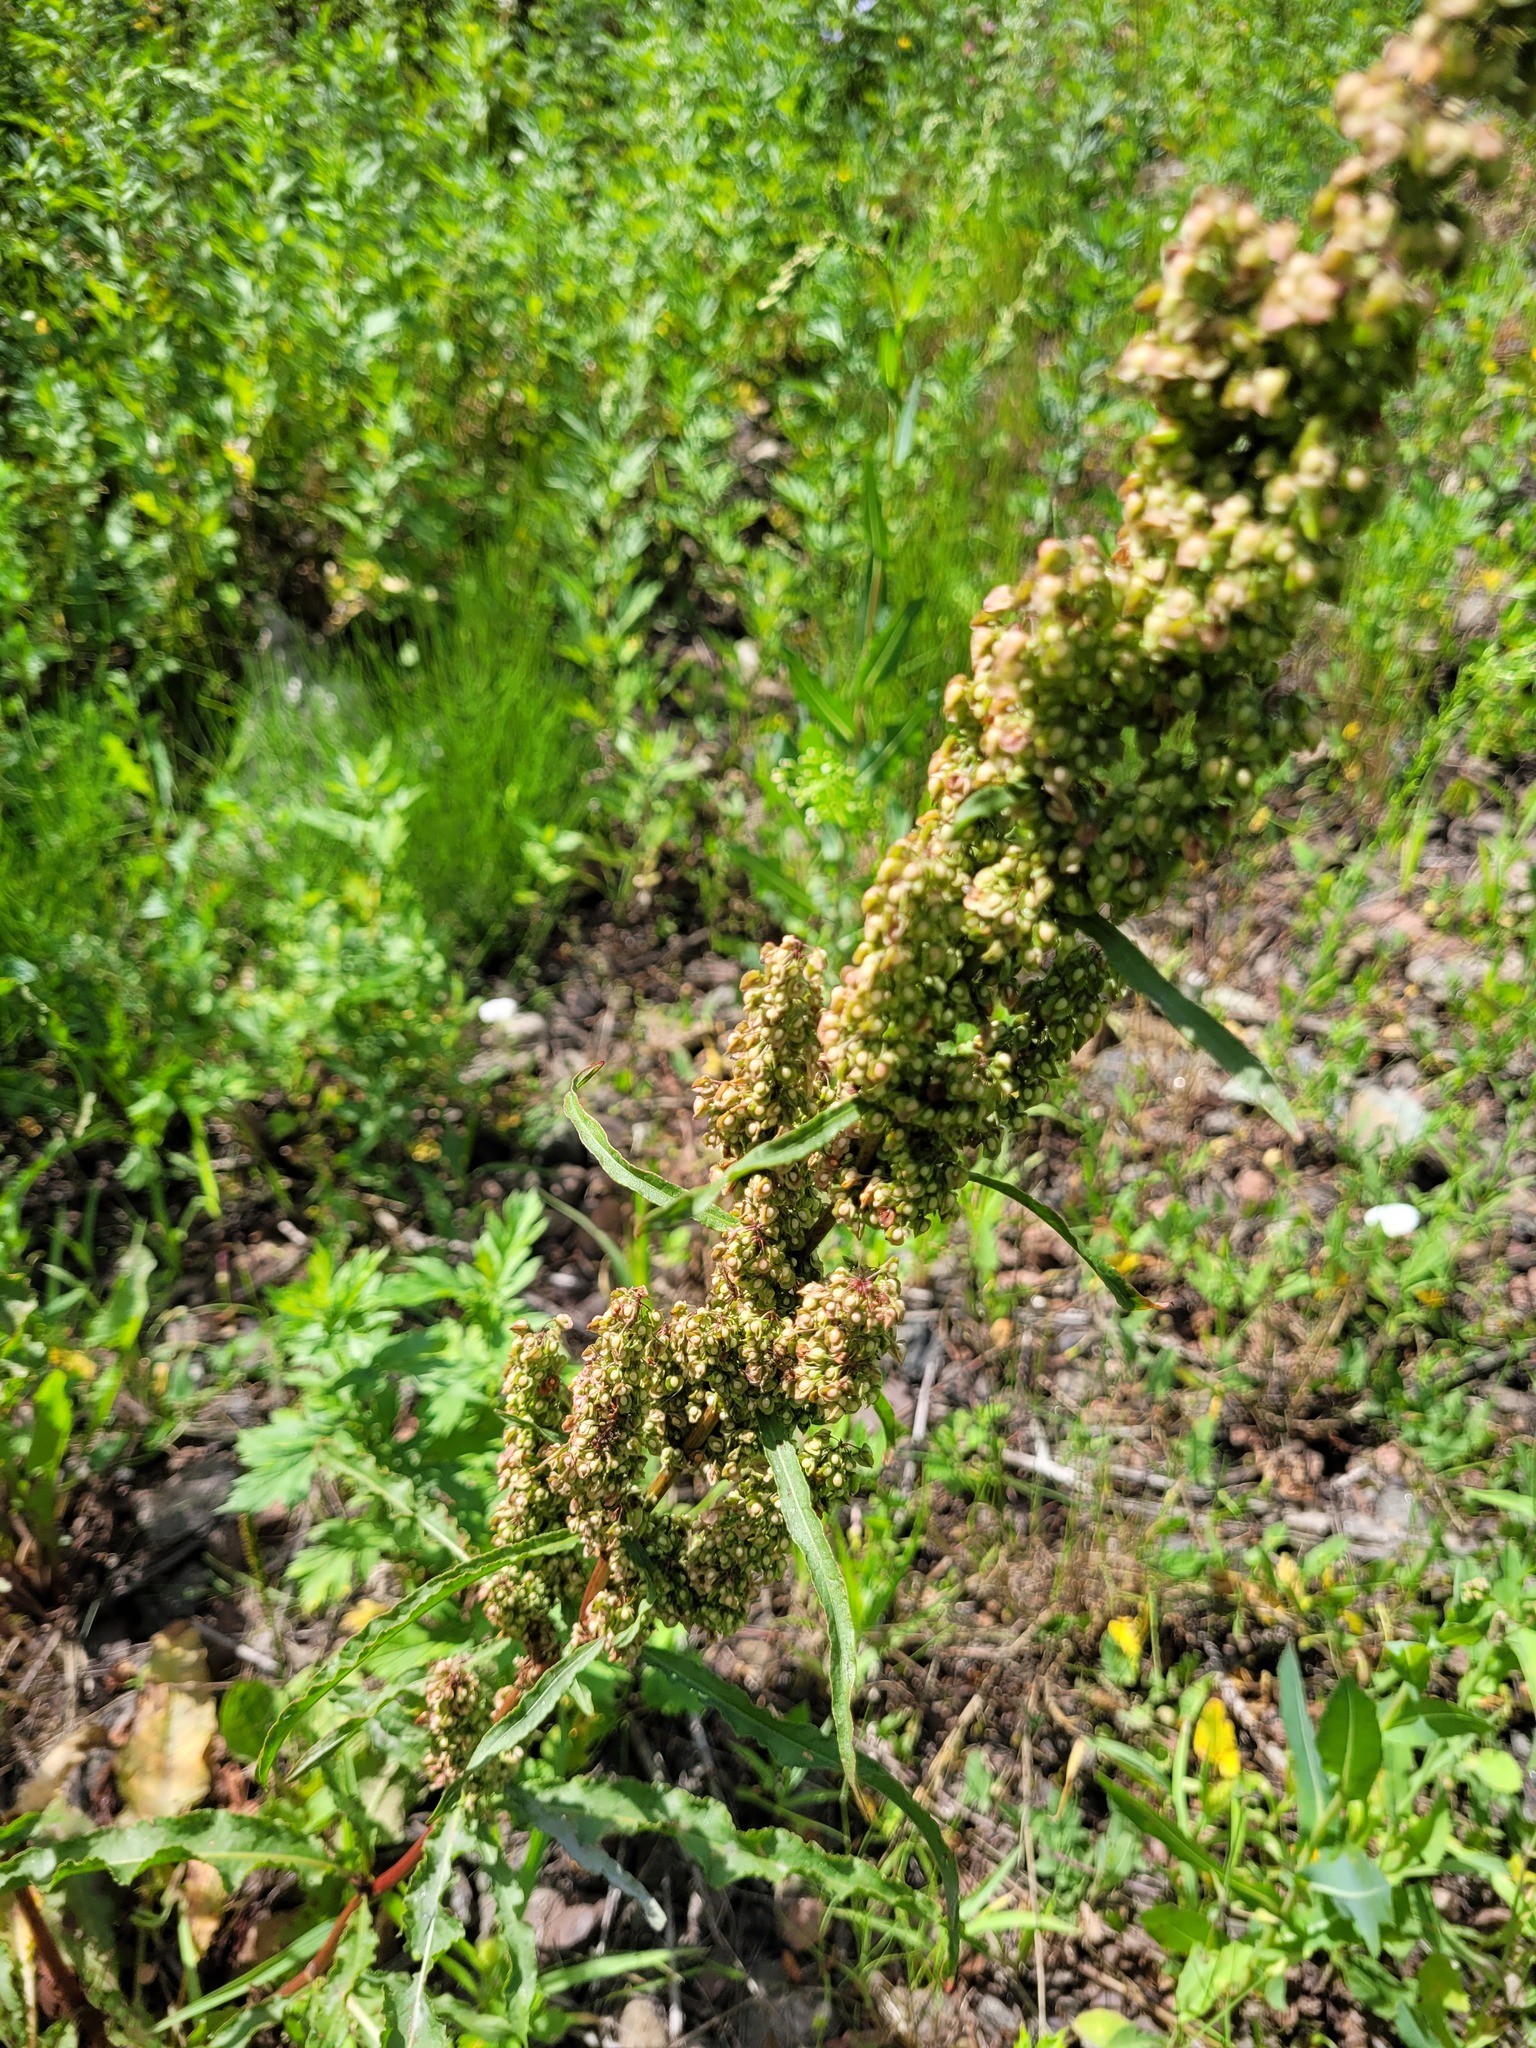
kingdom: Plantae
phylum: Tracheophyta
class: Magnoliopsida
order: Caryophyllales
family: Polygonaceae
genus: Rumex
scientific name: Rumex crispus
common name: Curled dock
